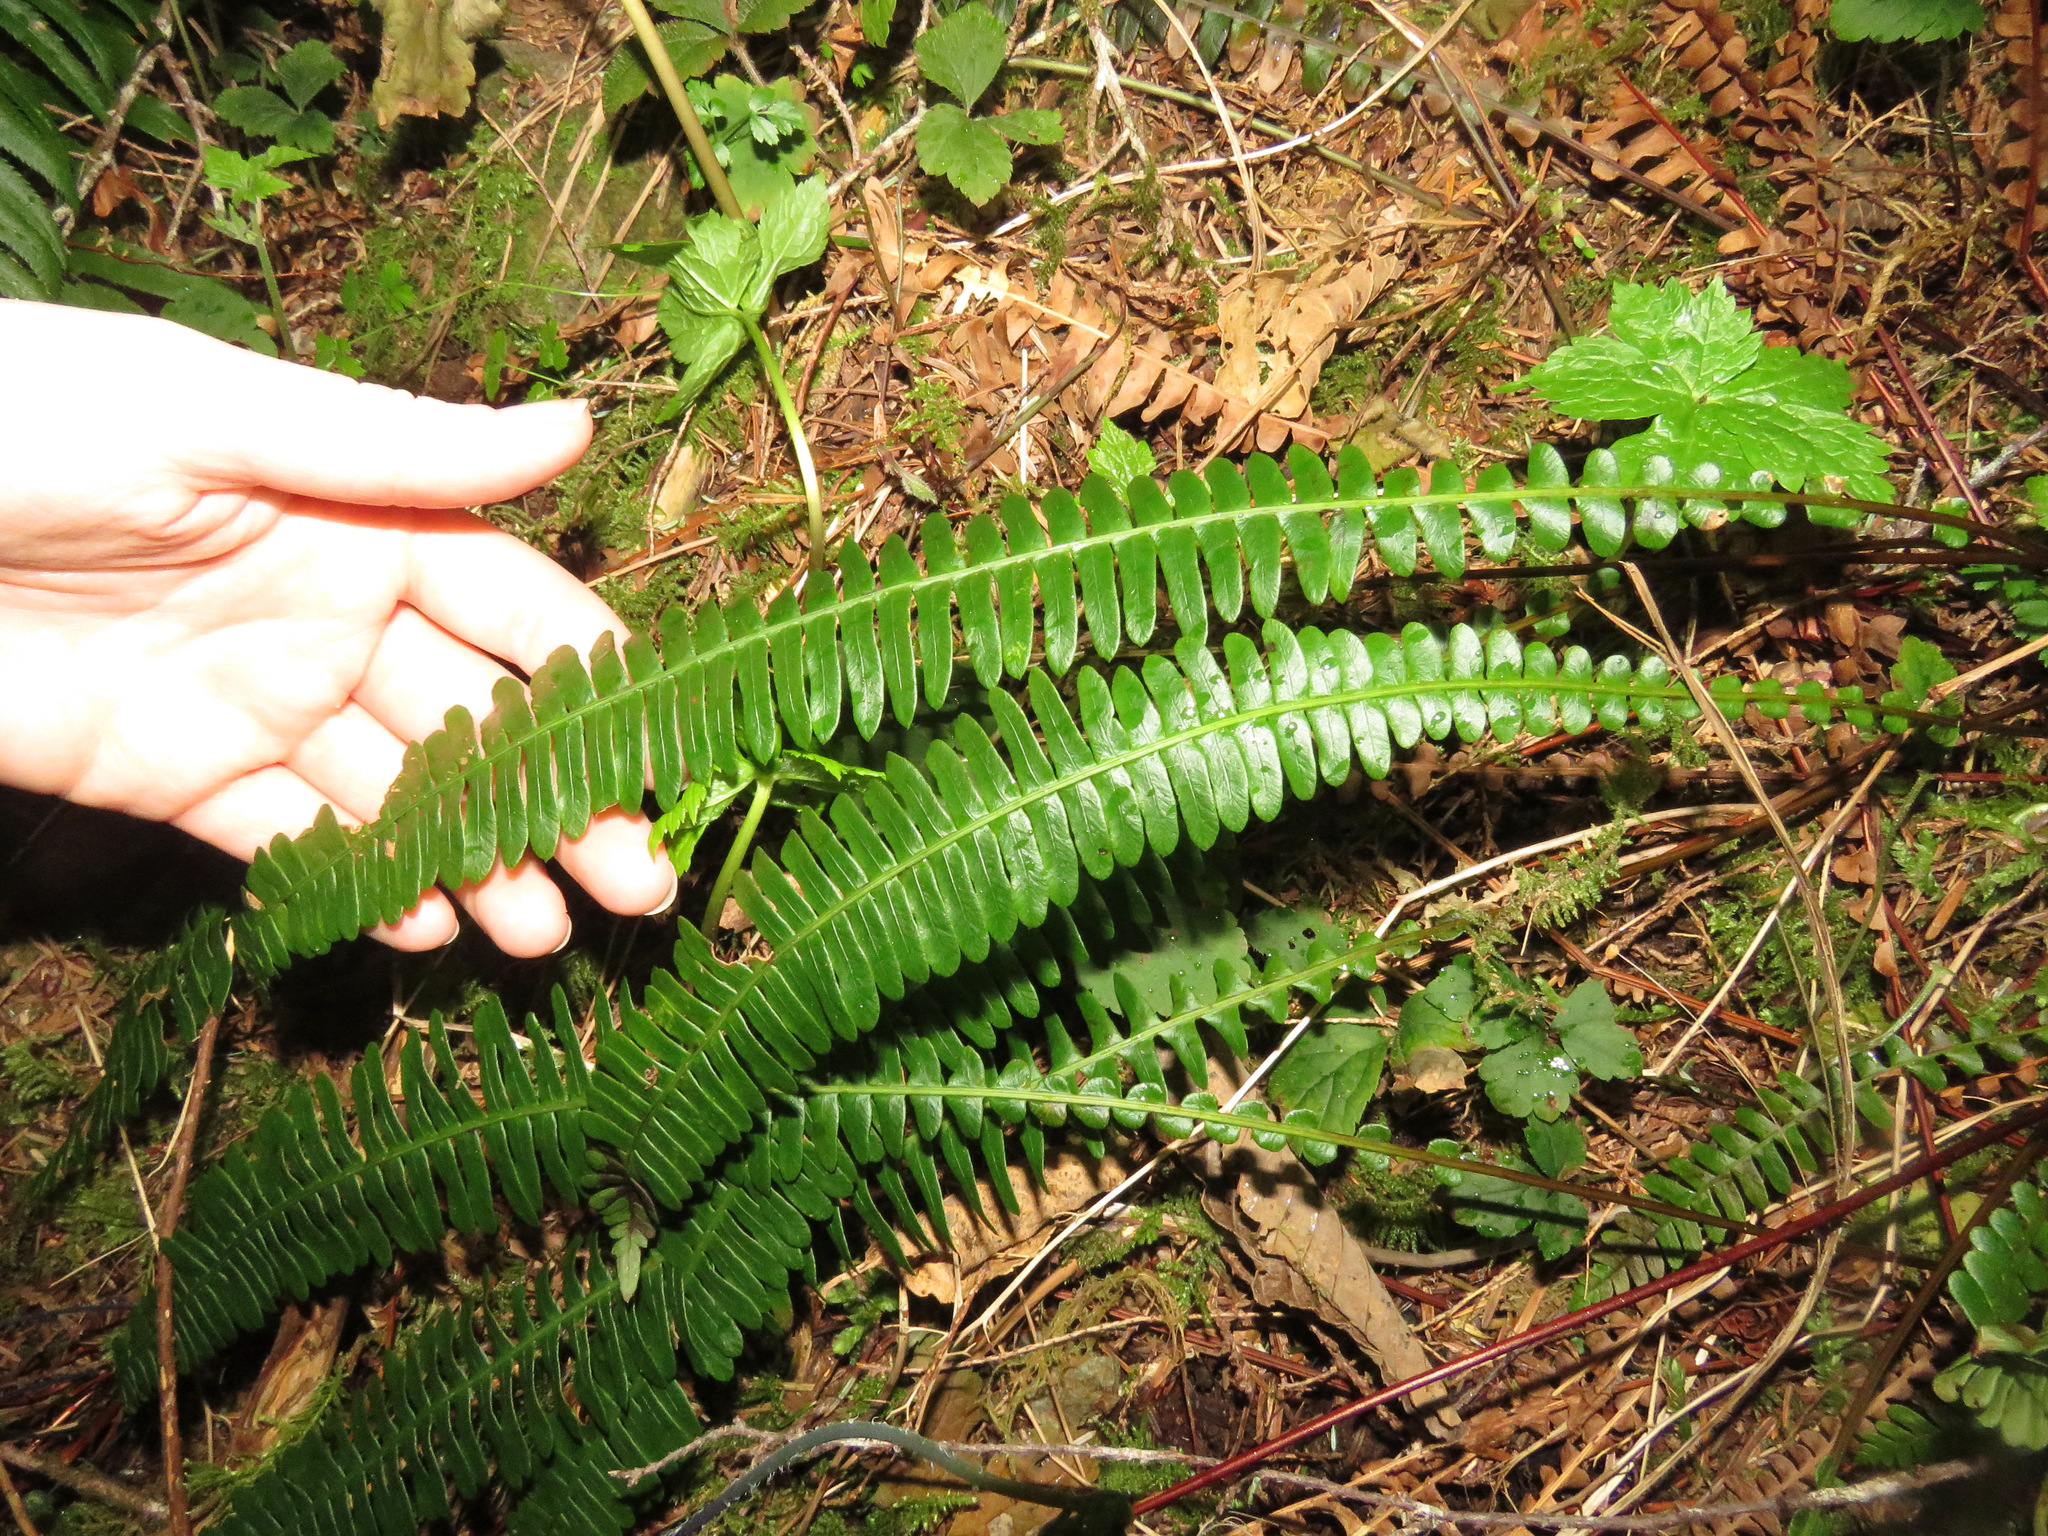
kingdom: Plantae
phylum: Tracheophyta
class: Polypodiopsida
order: Polypodiales
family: Blechnaceae
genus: Struthiopteris
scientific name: Struthiopteris spicant
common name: Deer fern
